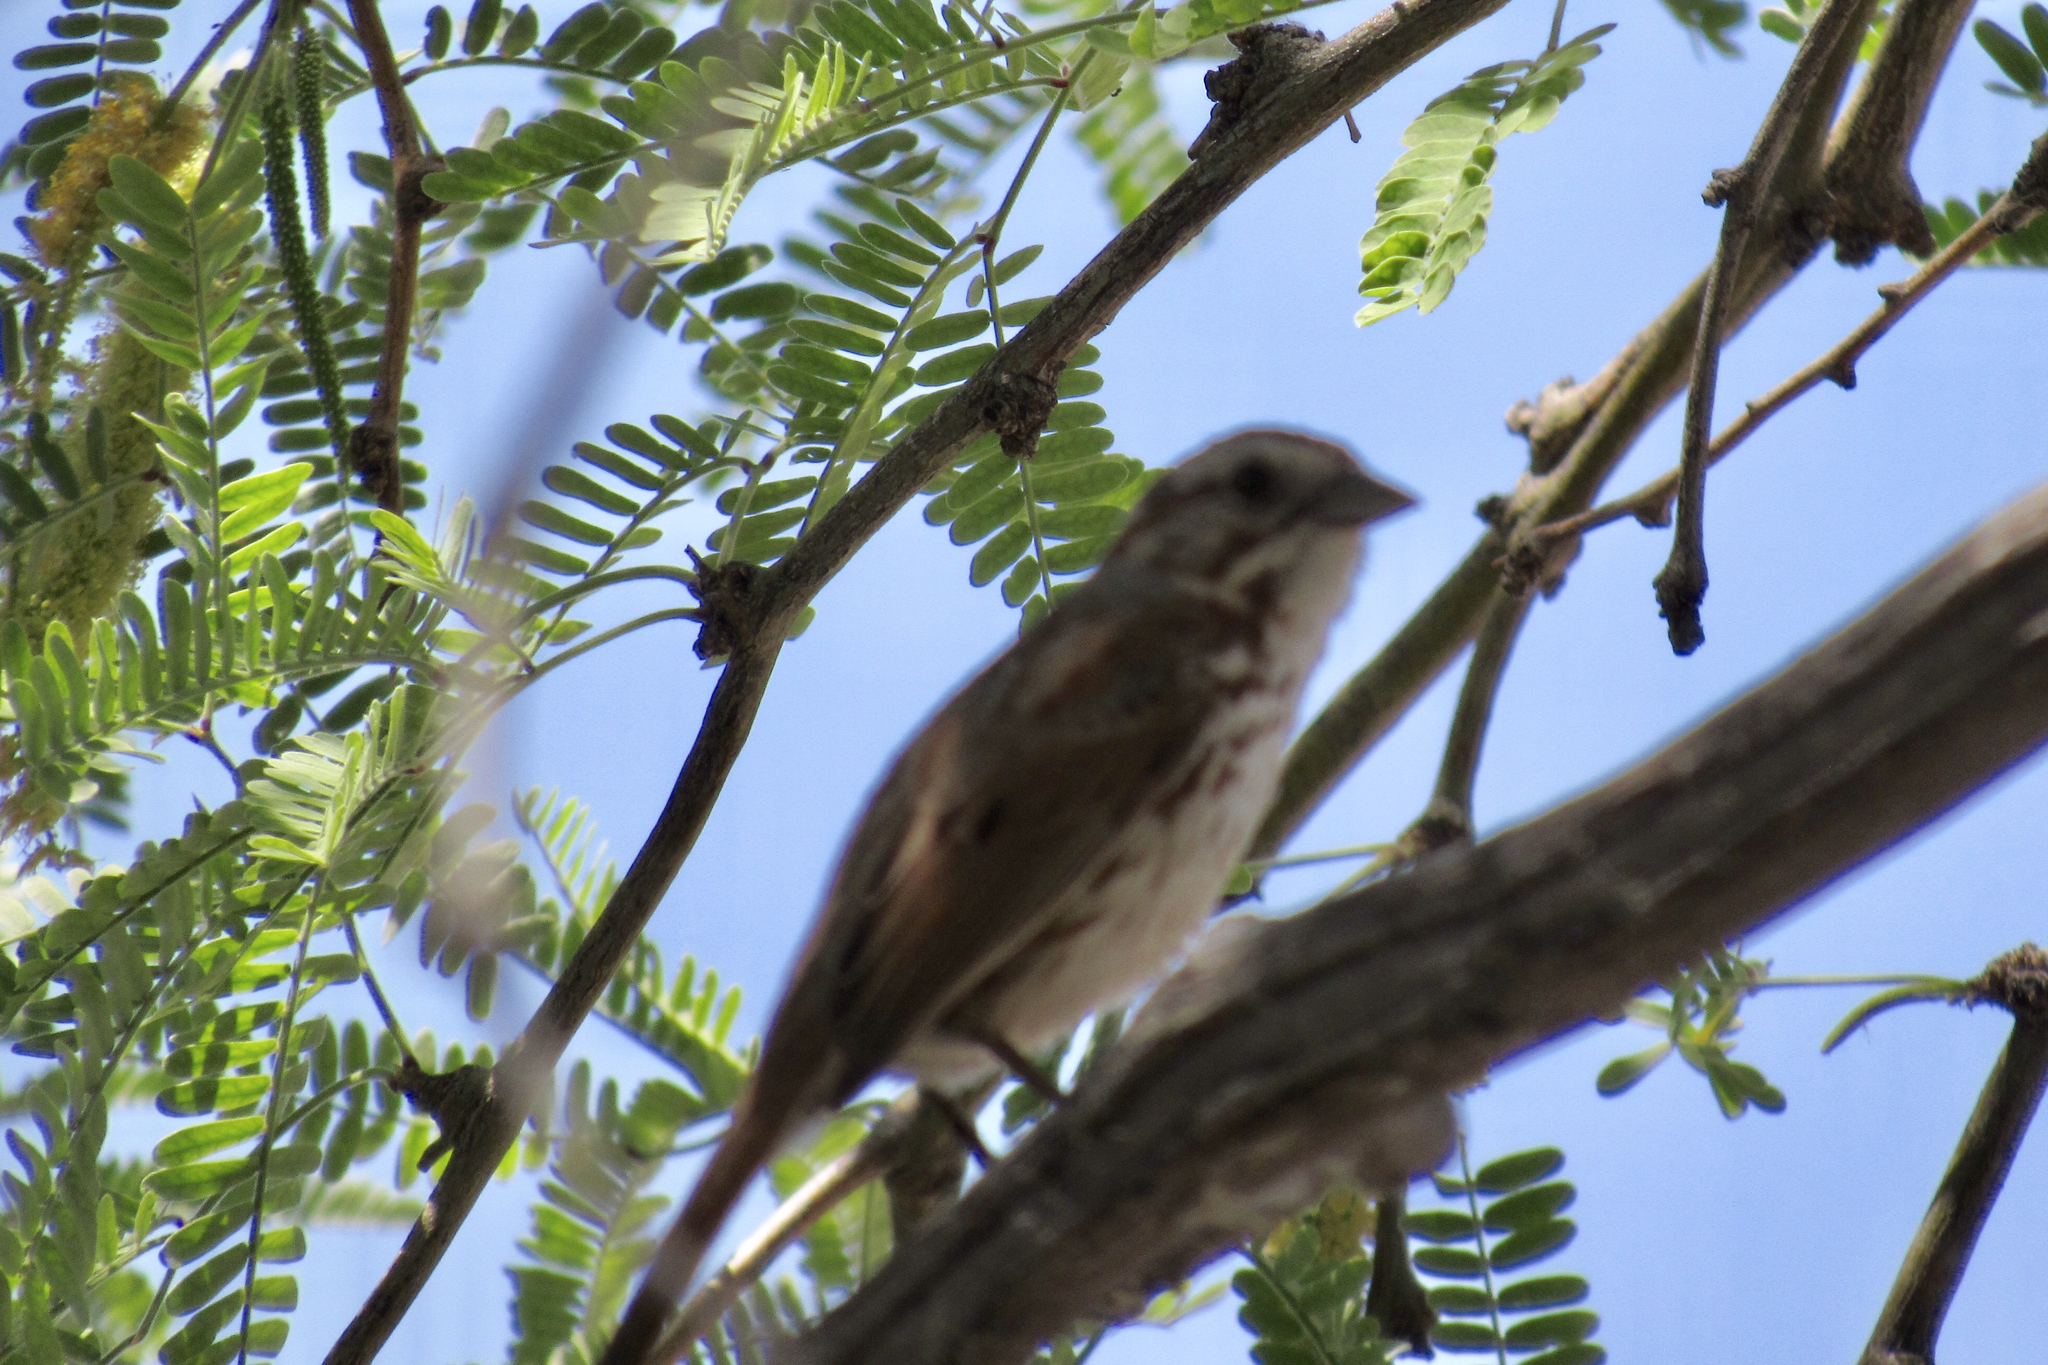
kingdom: Animalia
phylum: Chordata
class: Aves
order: Passeriformes
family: Passerellidae
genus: Melospiza
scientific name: Melospiza melodia
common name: Song sparrow
